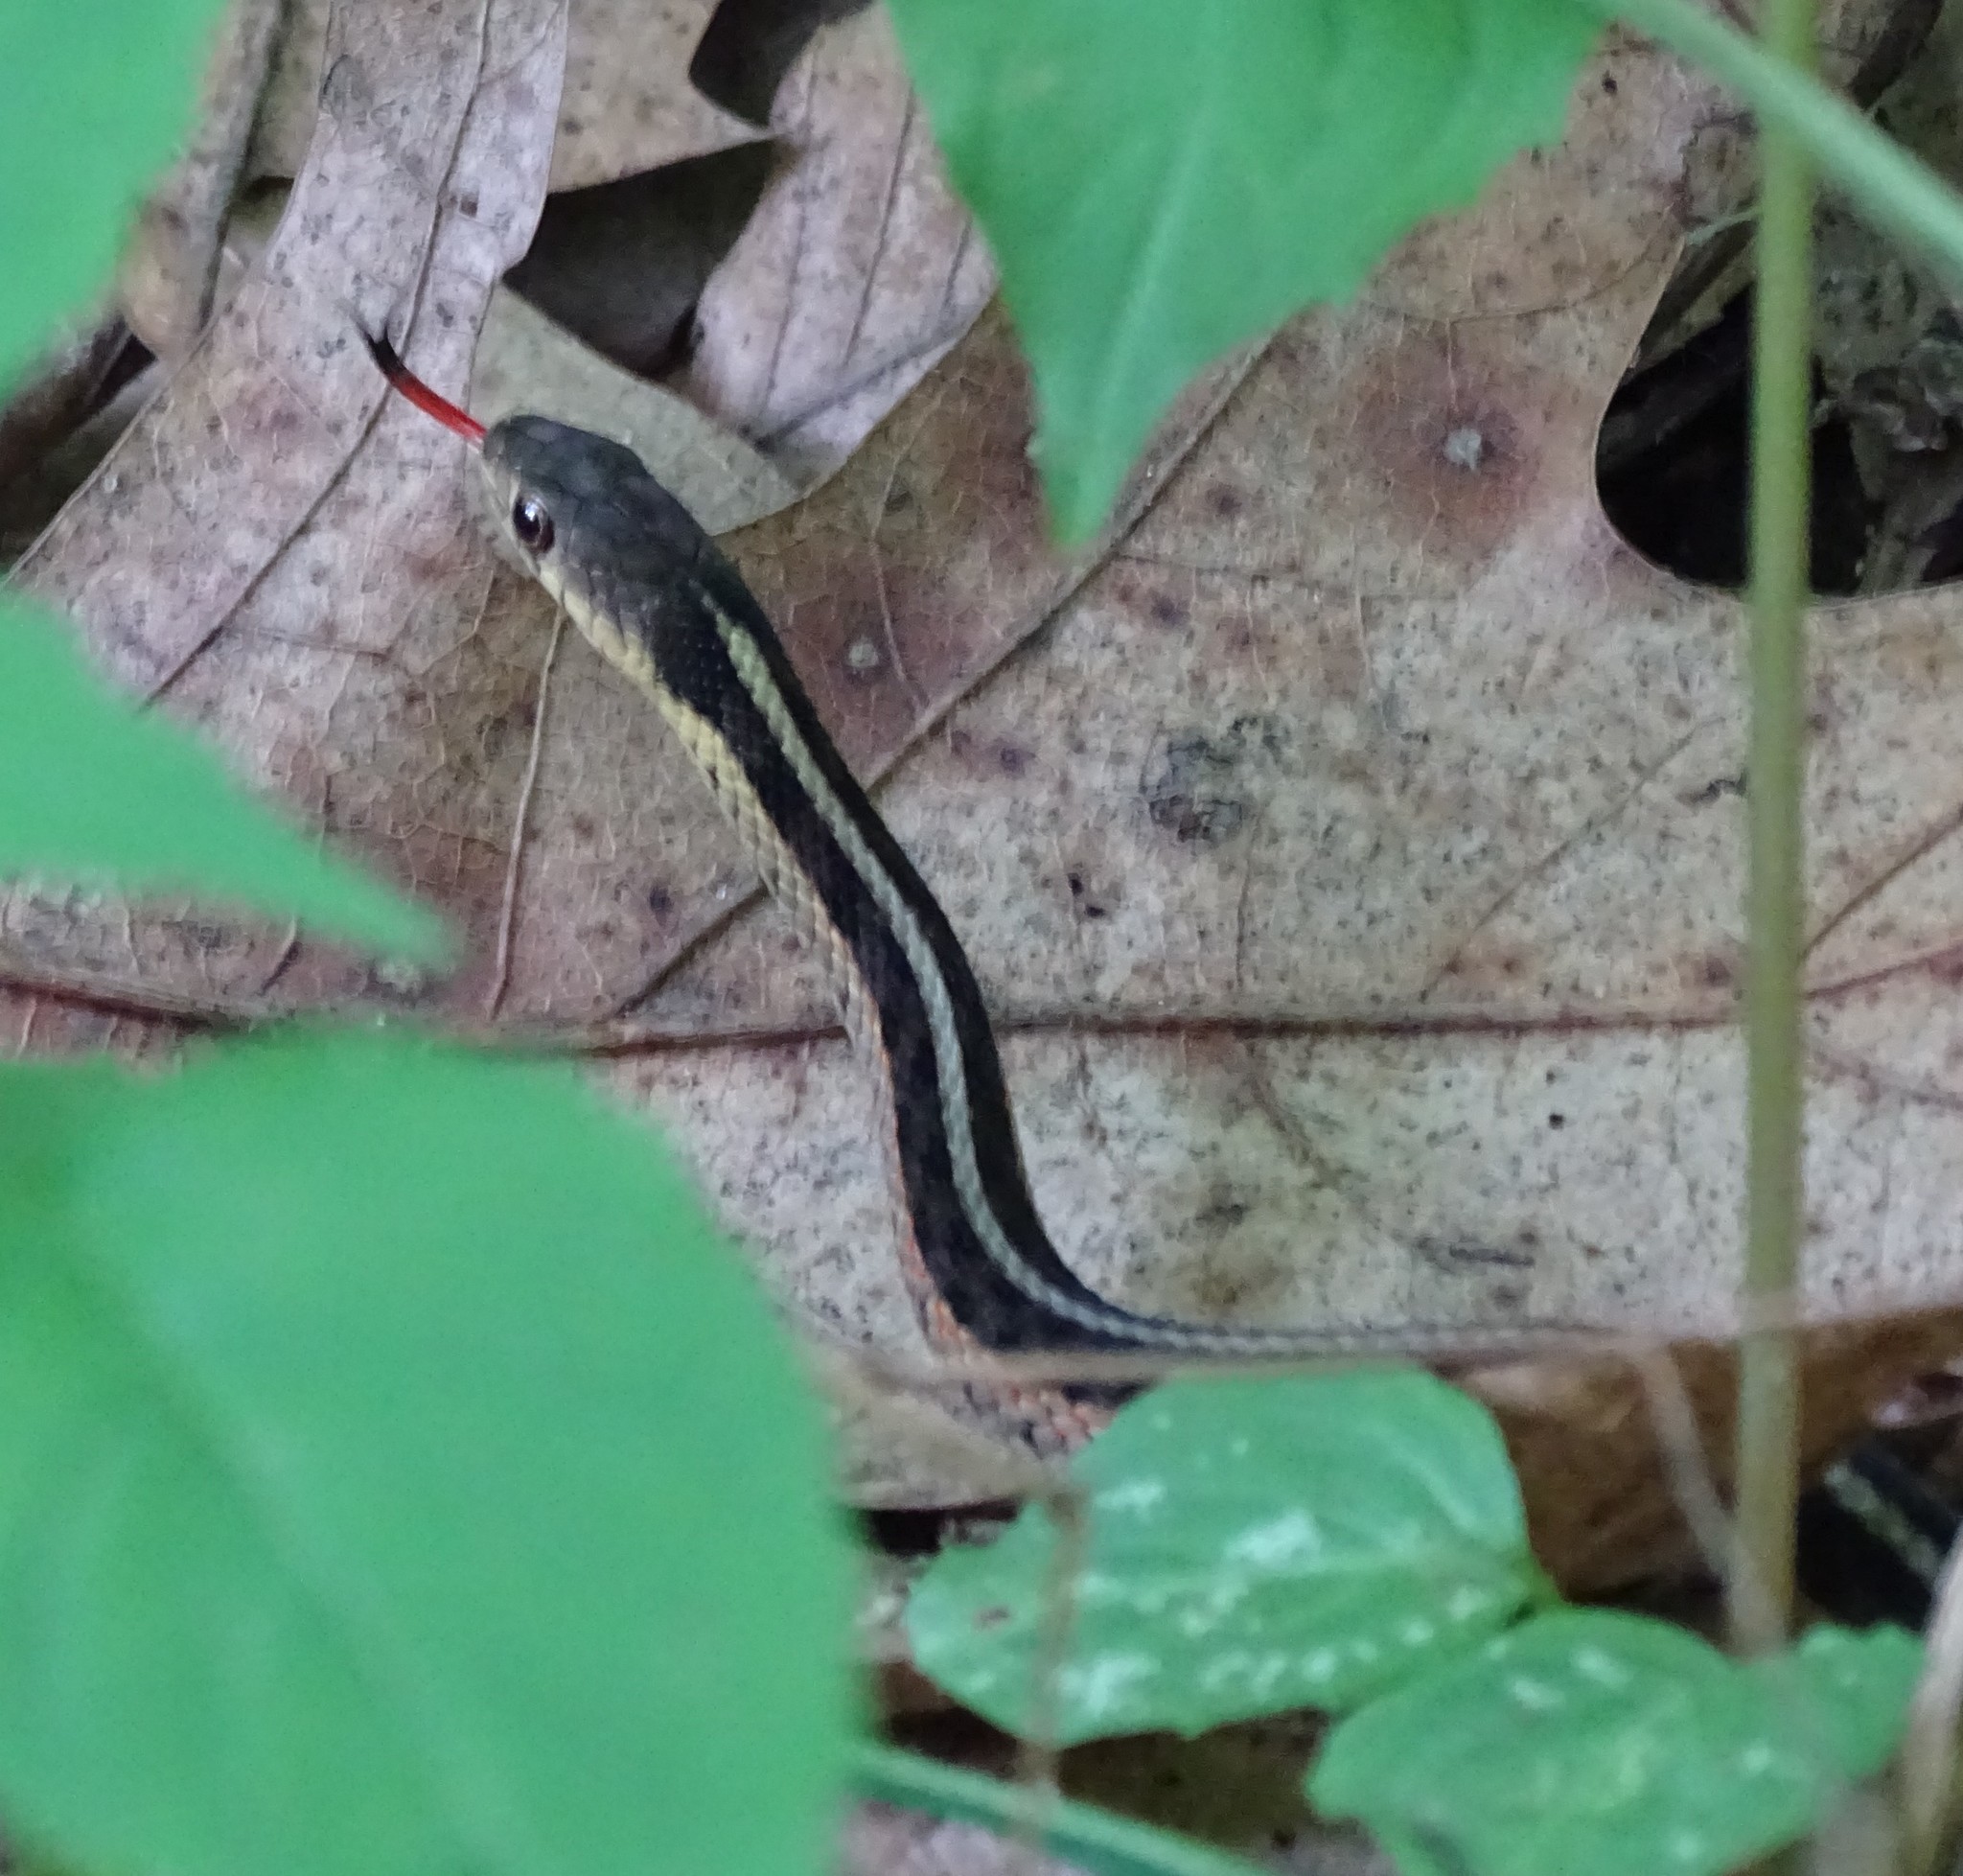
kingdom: Animalia
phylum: Chordata
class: Squamata
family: Colubridae
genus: Thamnophis
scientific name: Thamnophis sirtalis
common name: Common garter snake
